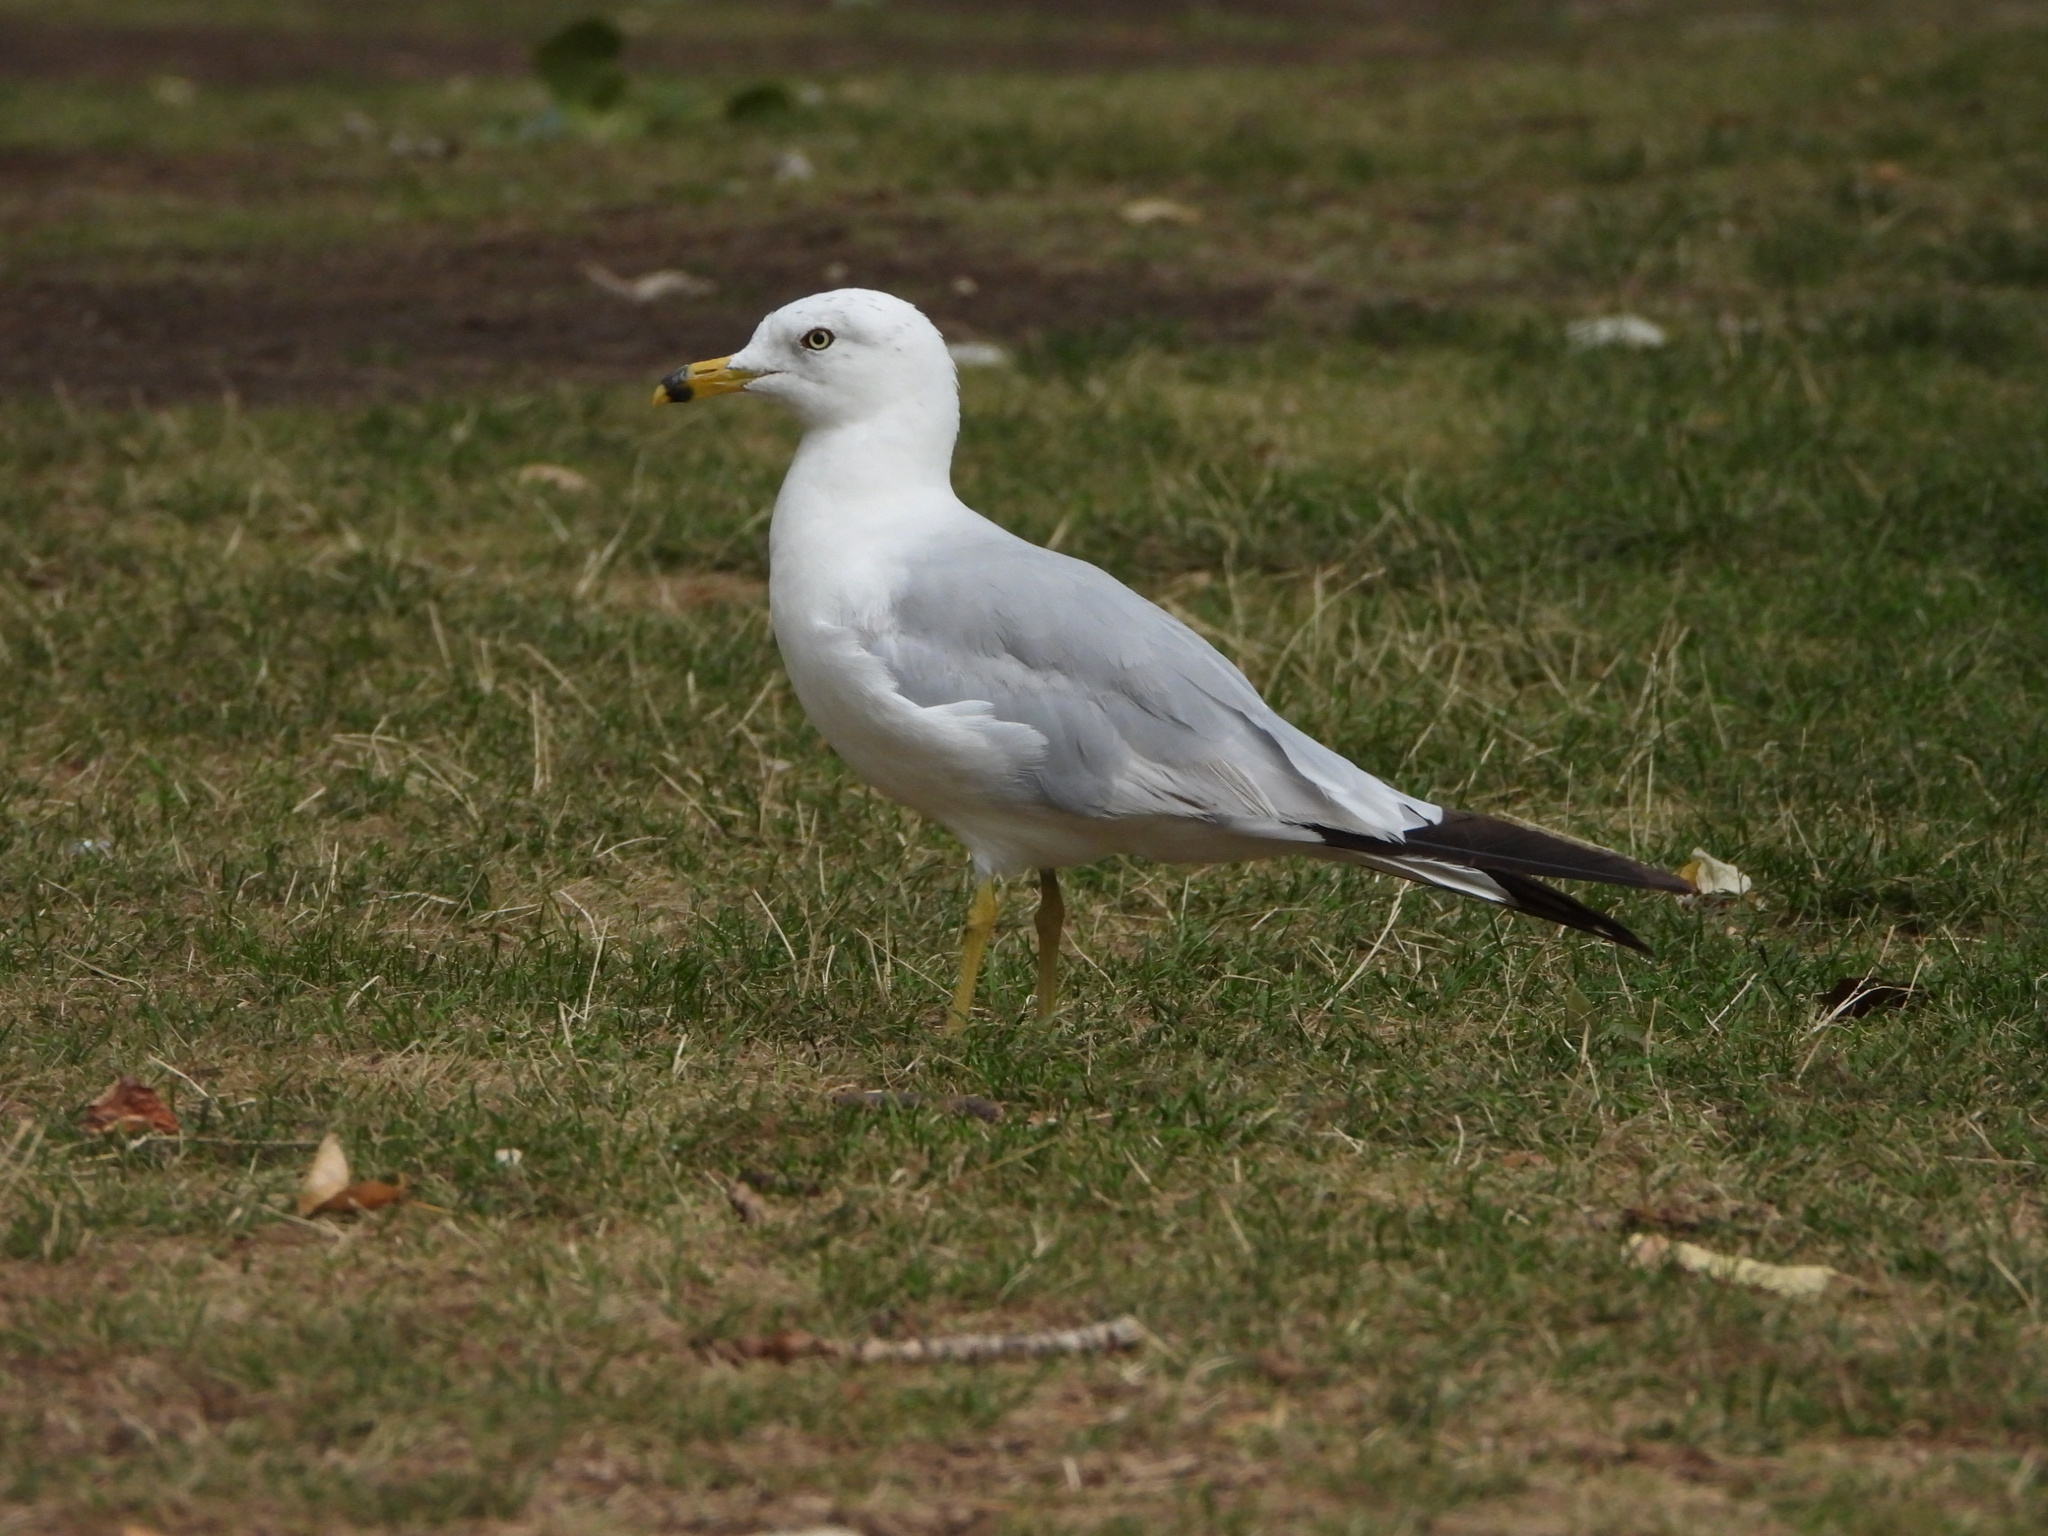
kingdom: Animalia
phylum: Chordata
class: Aves
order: Charadriiformes
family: Laridae
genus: Larus
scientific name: Larus delawarensis
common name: Ring-billed gull
